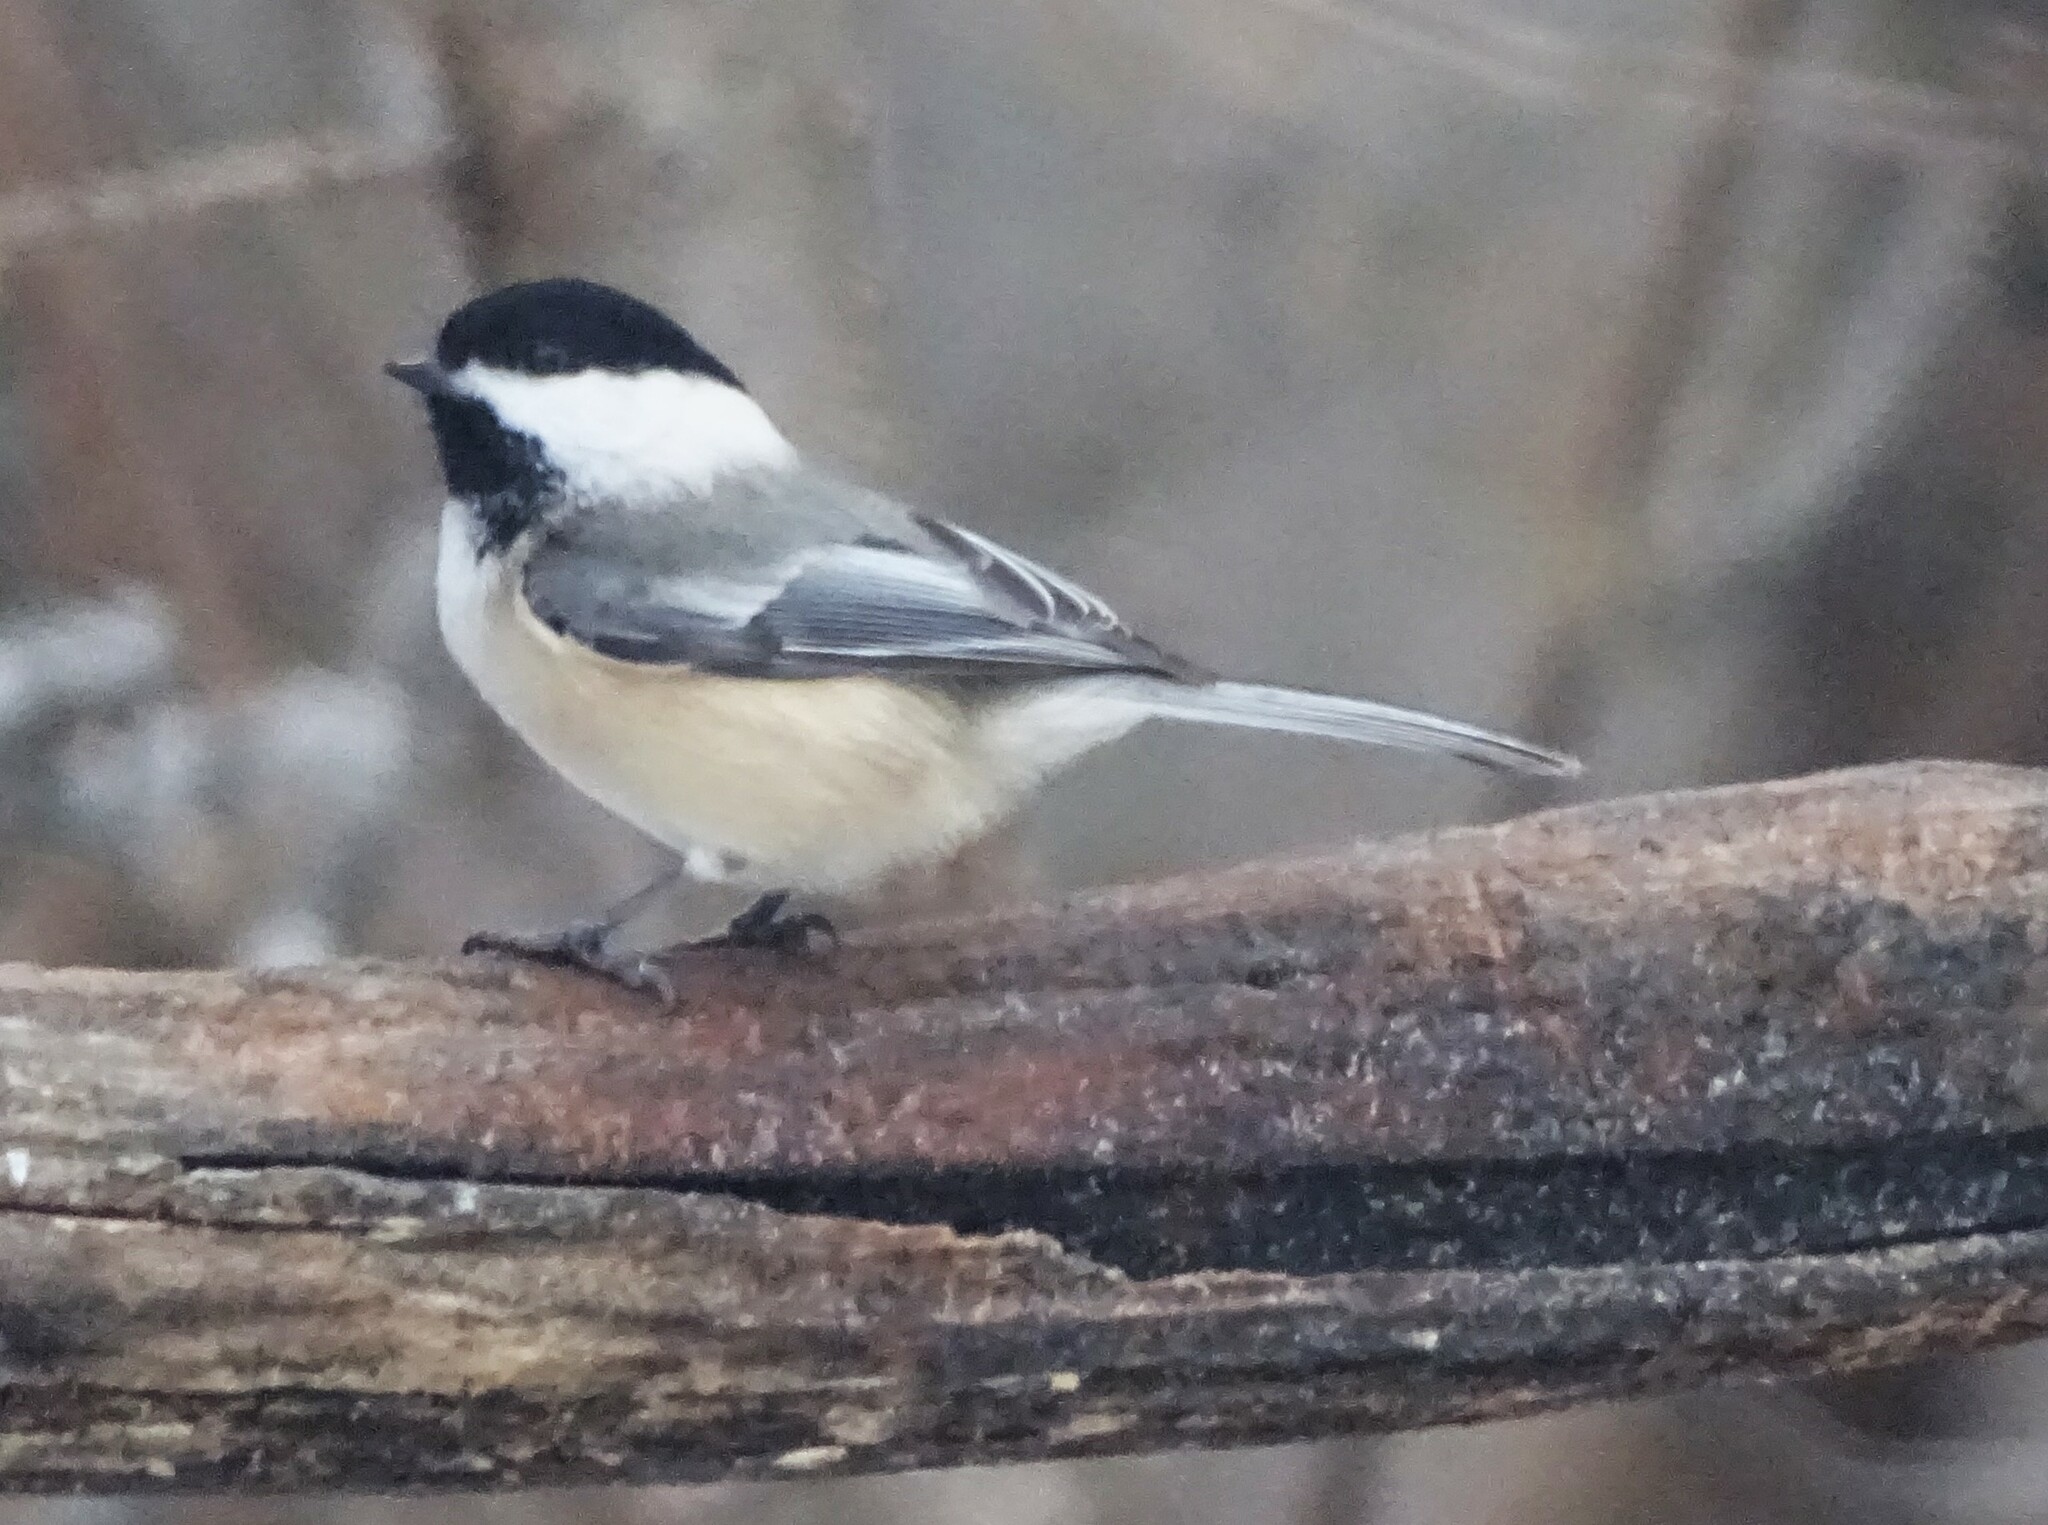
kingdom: Animalia
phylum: Chordata
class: Aves
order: Passeriformes
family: Paridae
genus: Poecile
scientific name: Poecile atricapillus
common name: Black-capped chickadee
